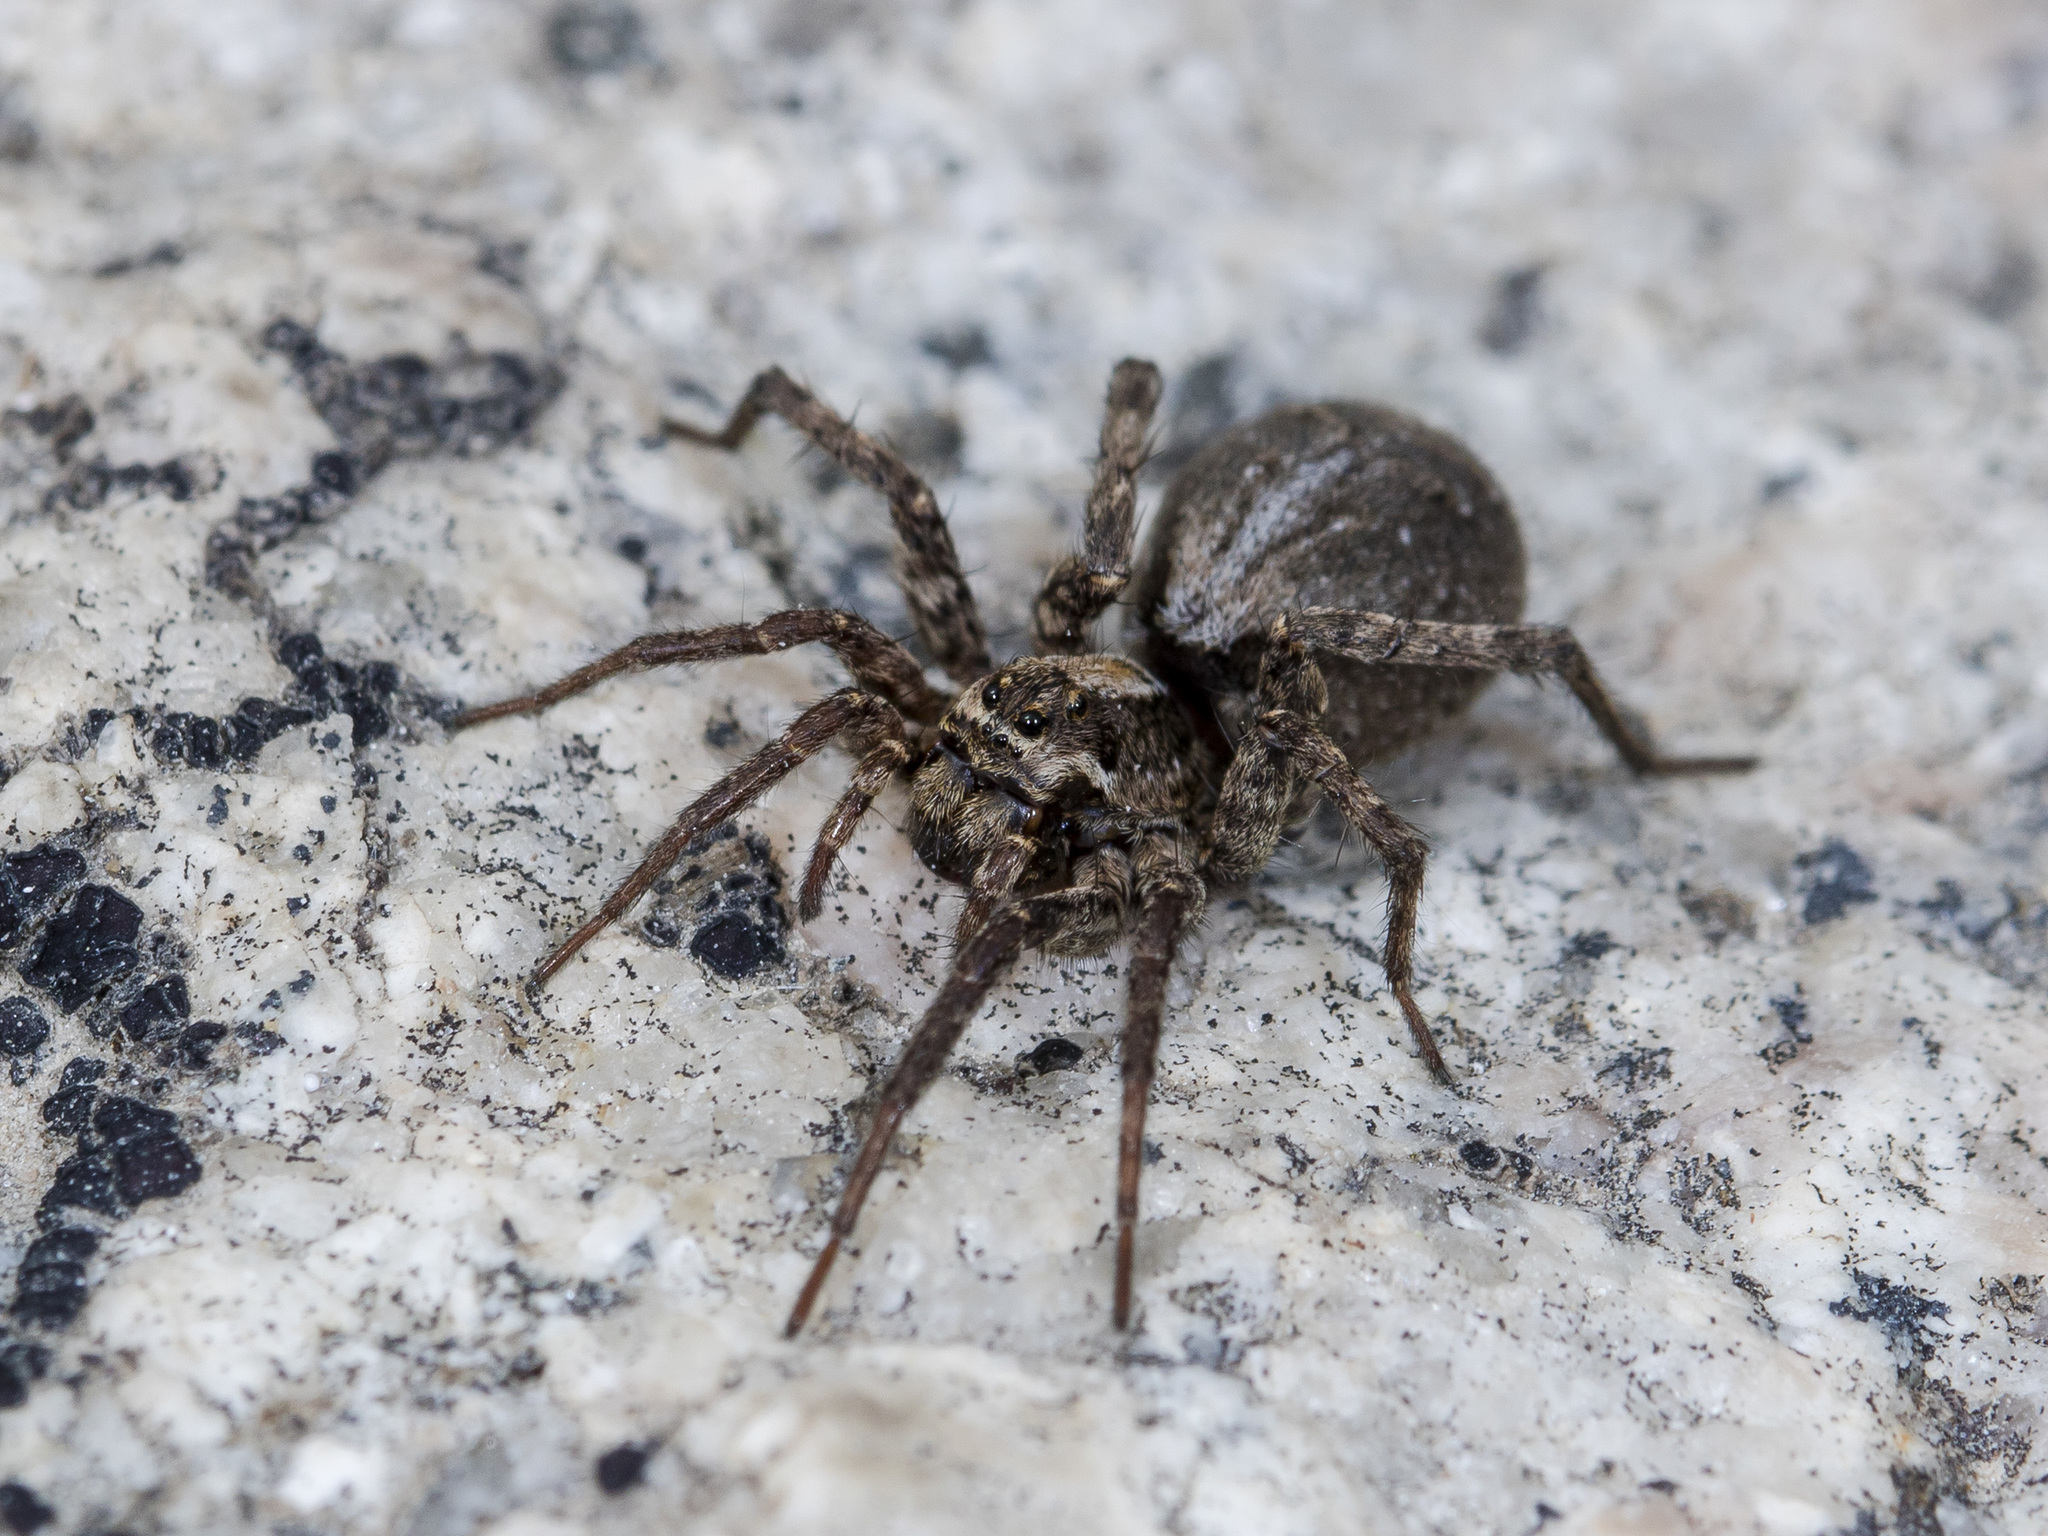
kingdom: Animalia
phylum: Arthropoda
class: Arachnida
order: Araneae
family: Lycosidae
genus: Alopecosa
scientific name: Alopecosa cursor
